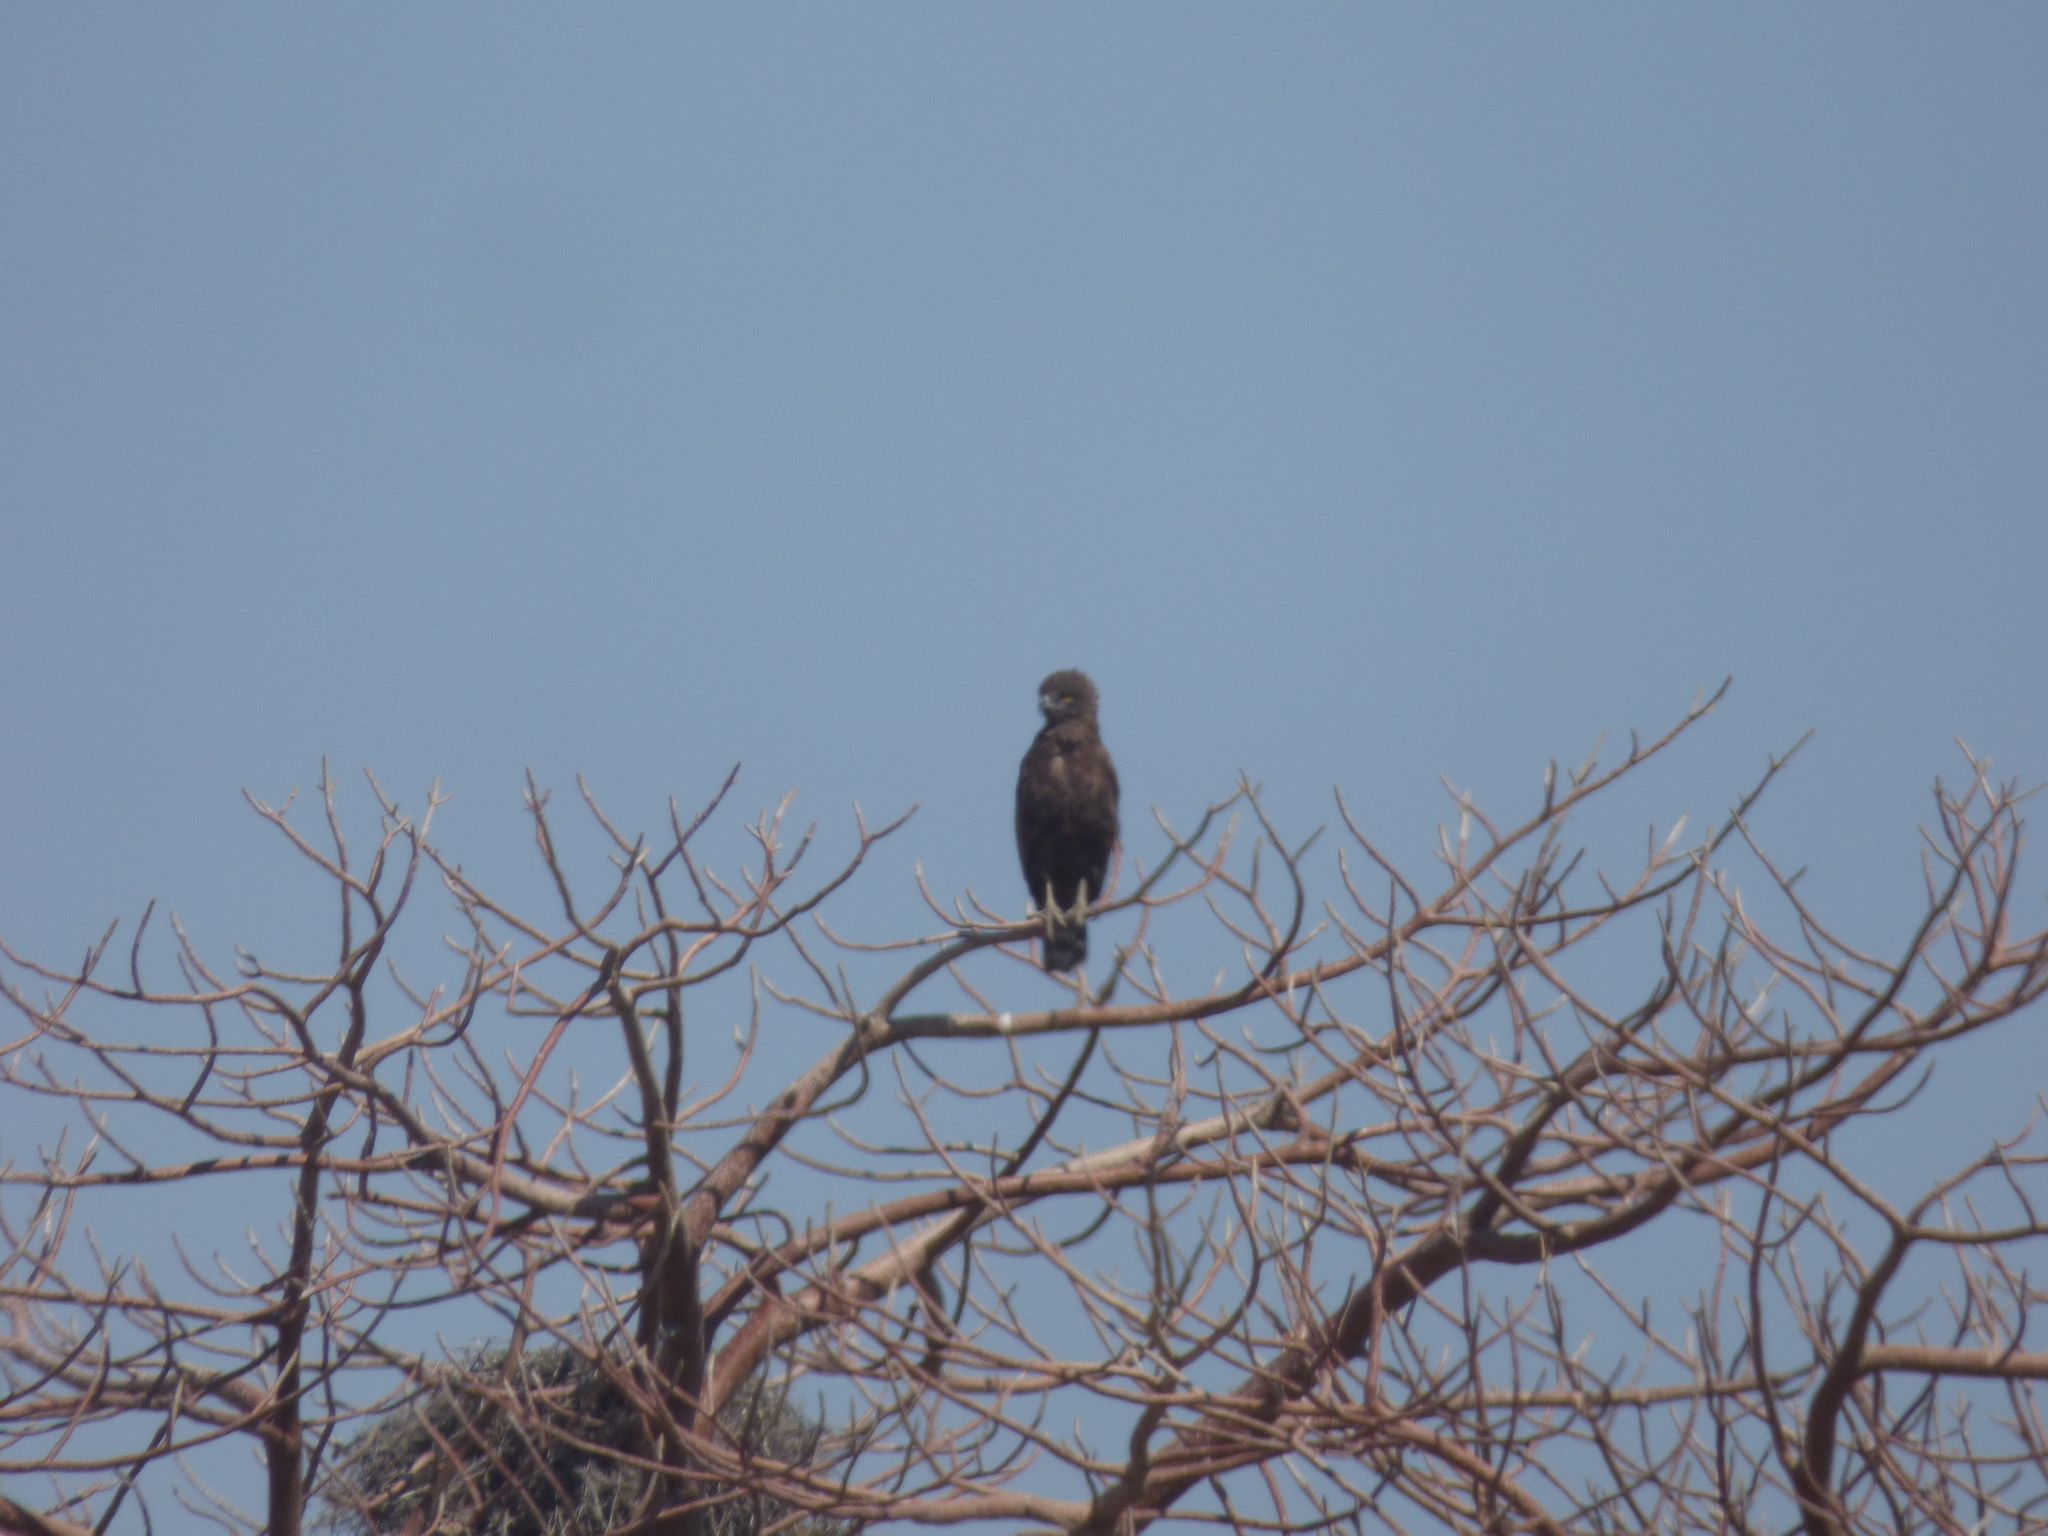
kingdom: Animalia
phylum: Chordata
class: Aves
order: Accipitriformes
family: Accipitridae
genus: Circaetus
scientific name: Circaetus cinereus
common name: Brown snake eagle
